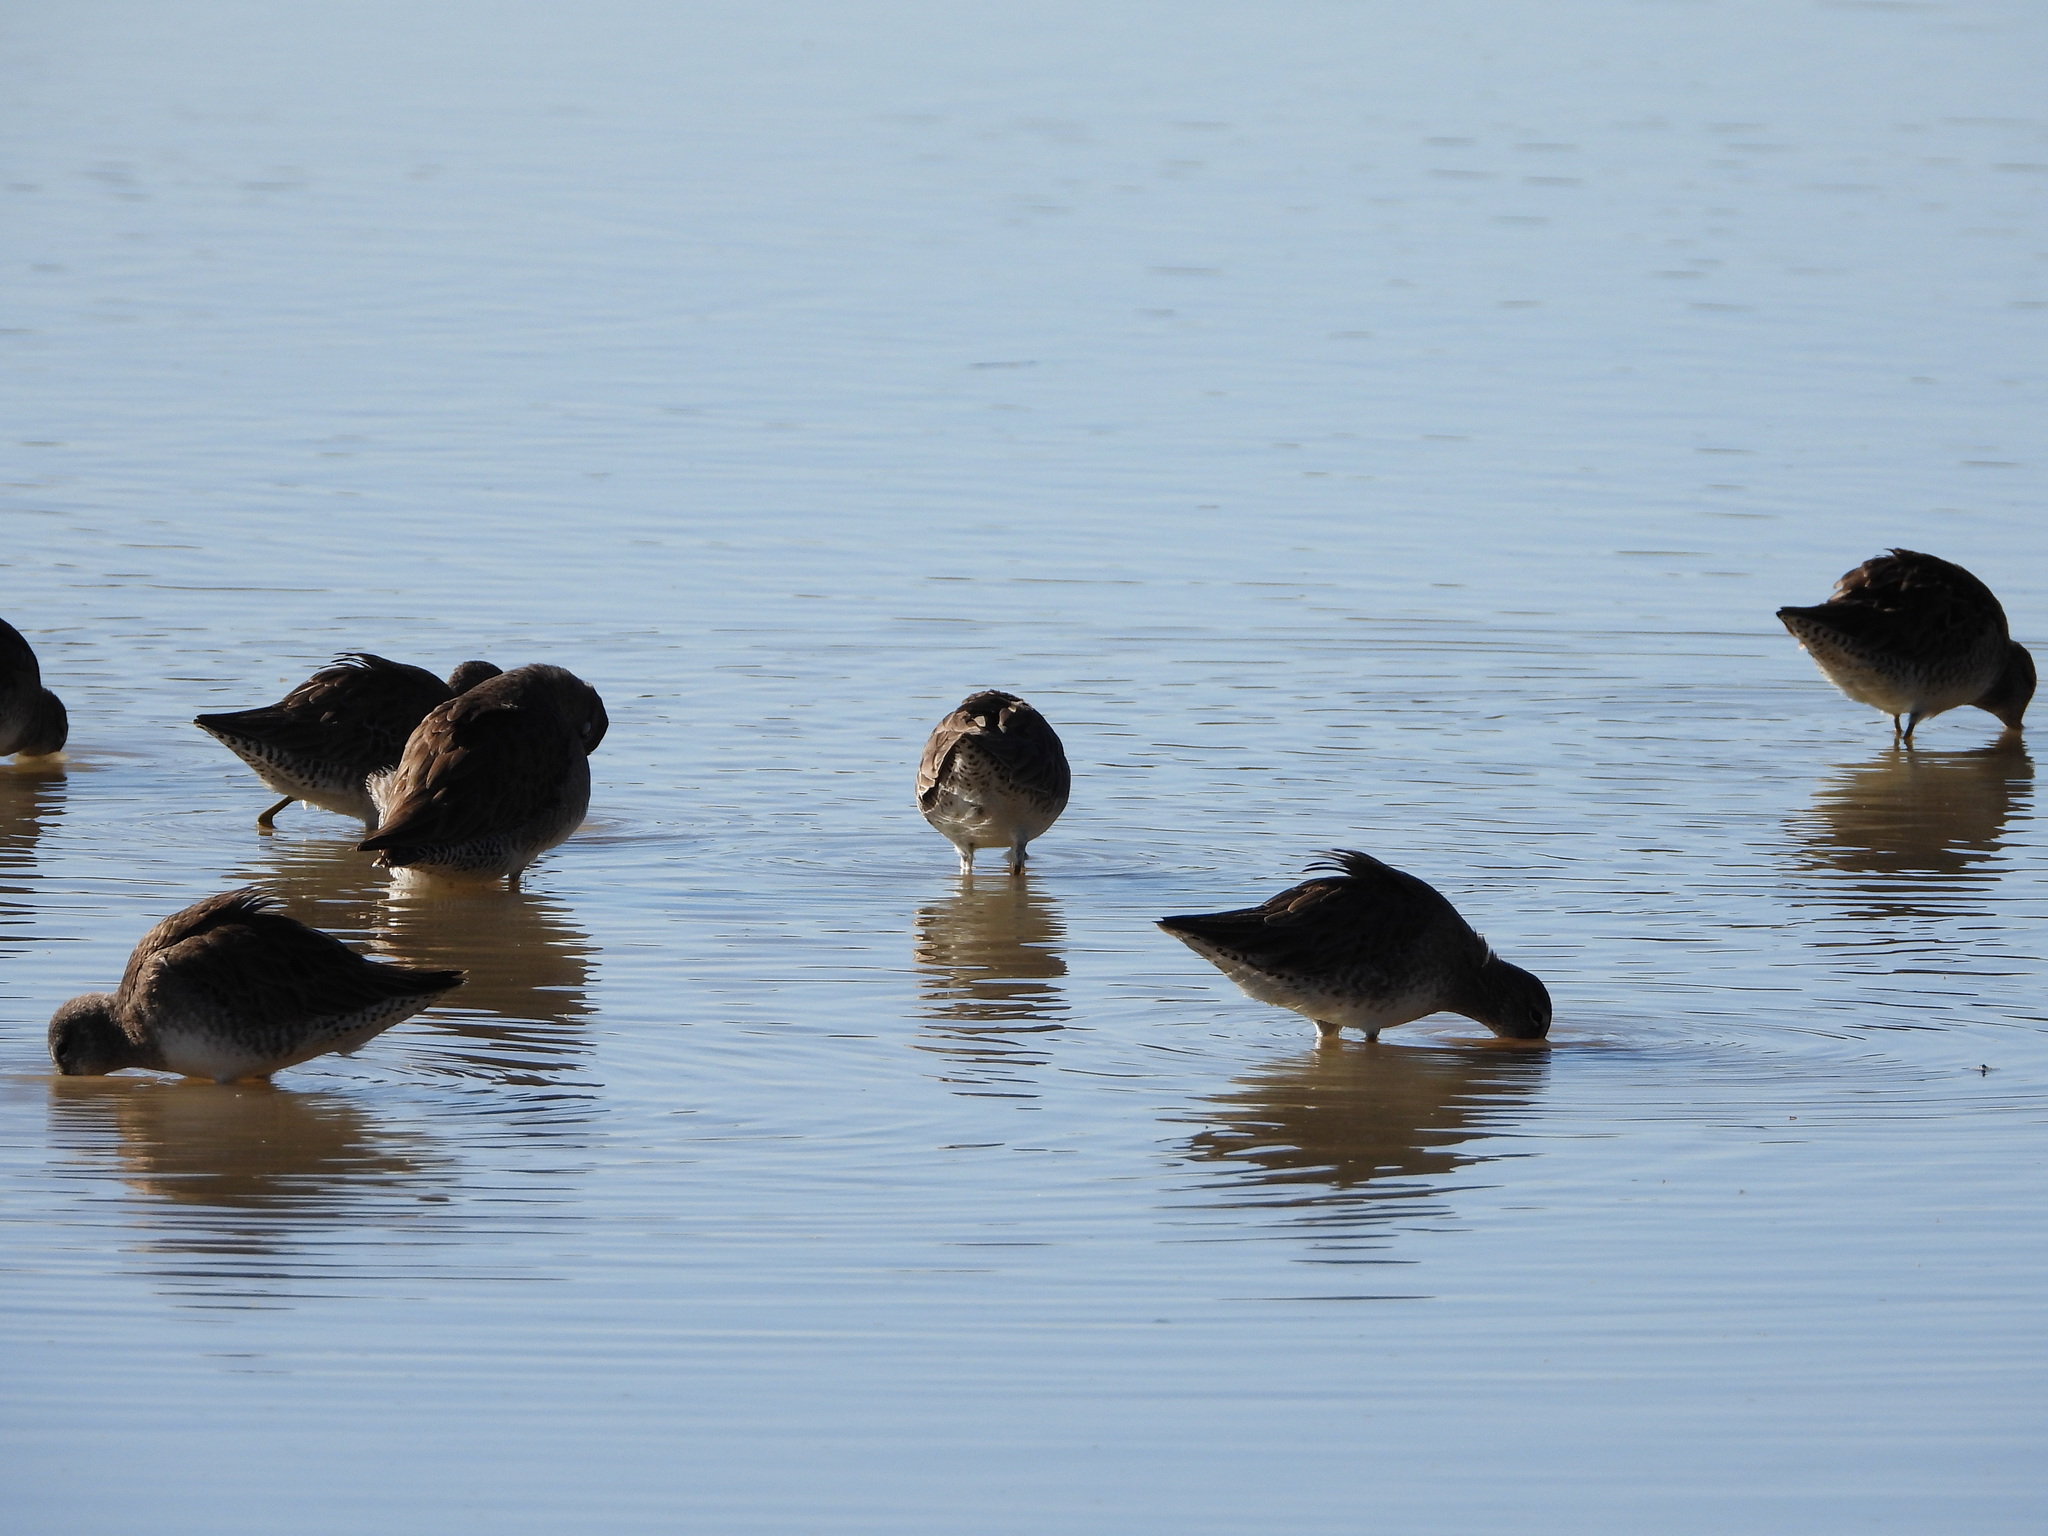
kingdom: Animalia
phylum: Chordata
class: Aves
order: Charadriiformes
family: Scolopacidae
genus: Limnodromus
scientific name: Limnodromus scolopaceus
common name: Long-billed dowitcher
